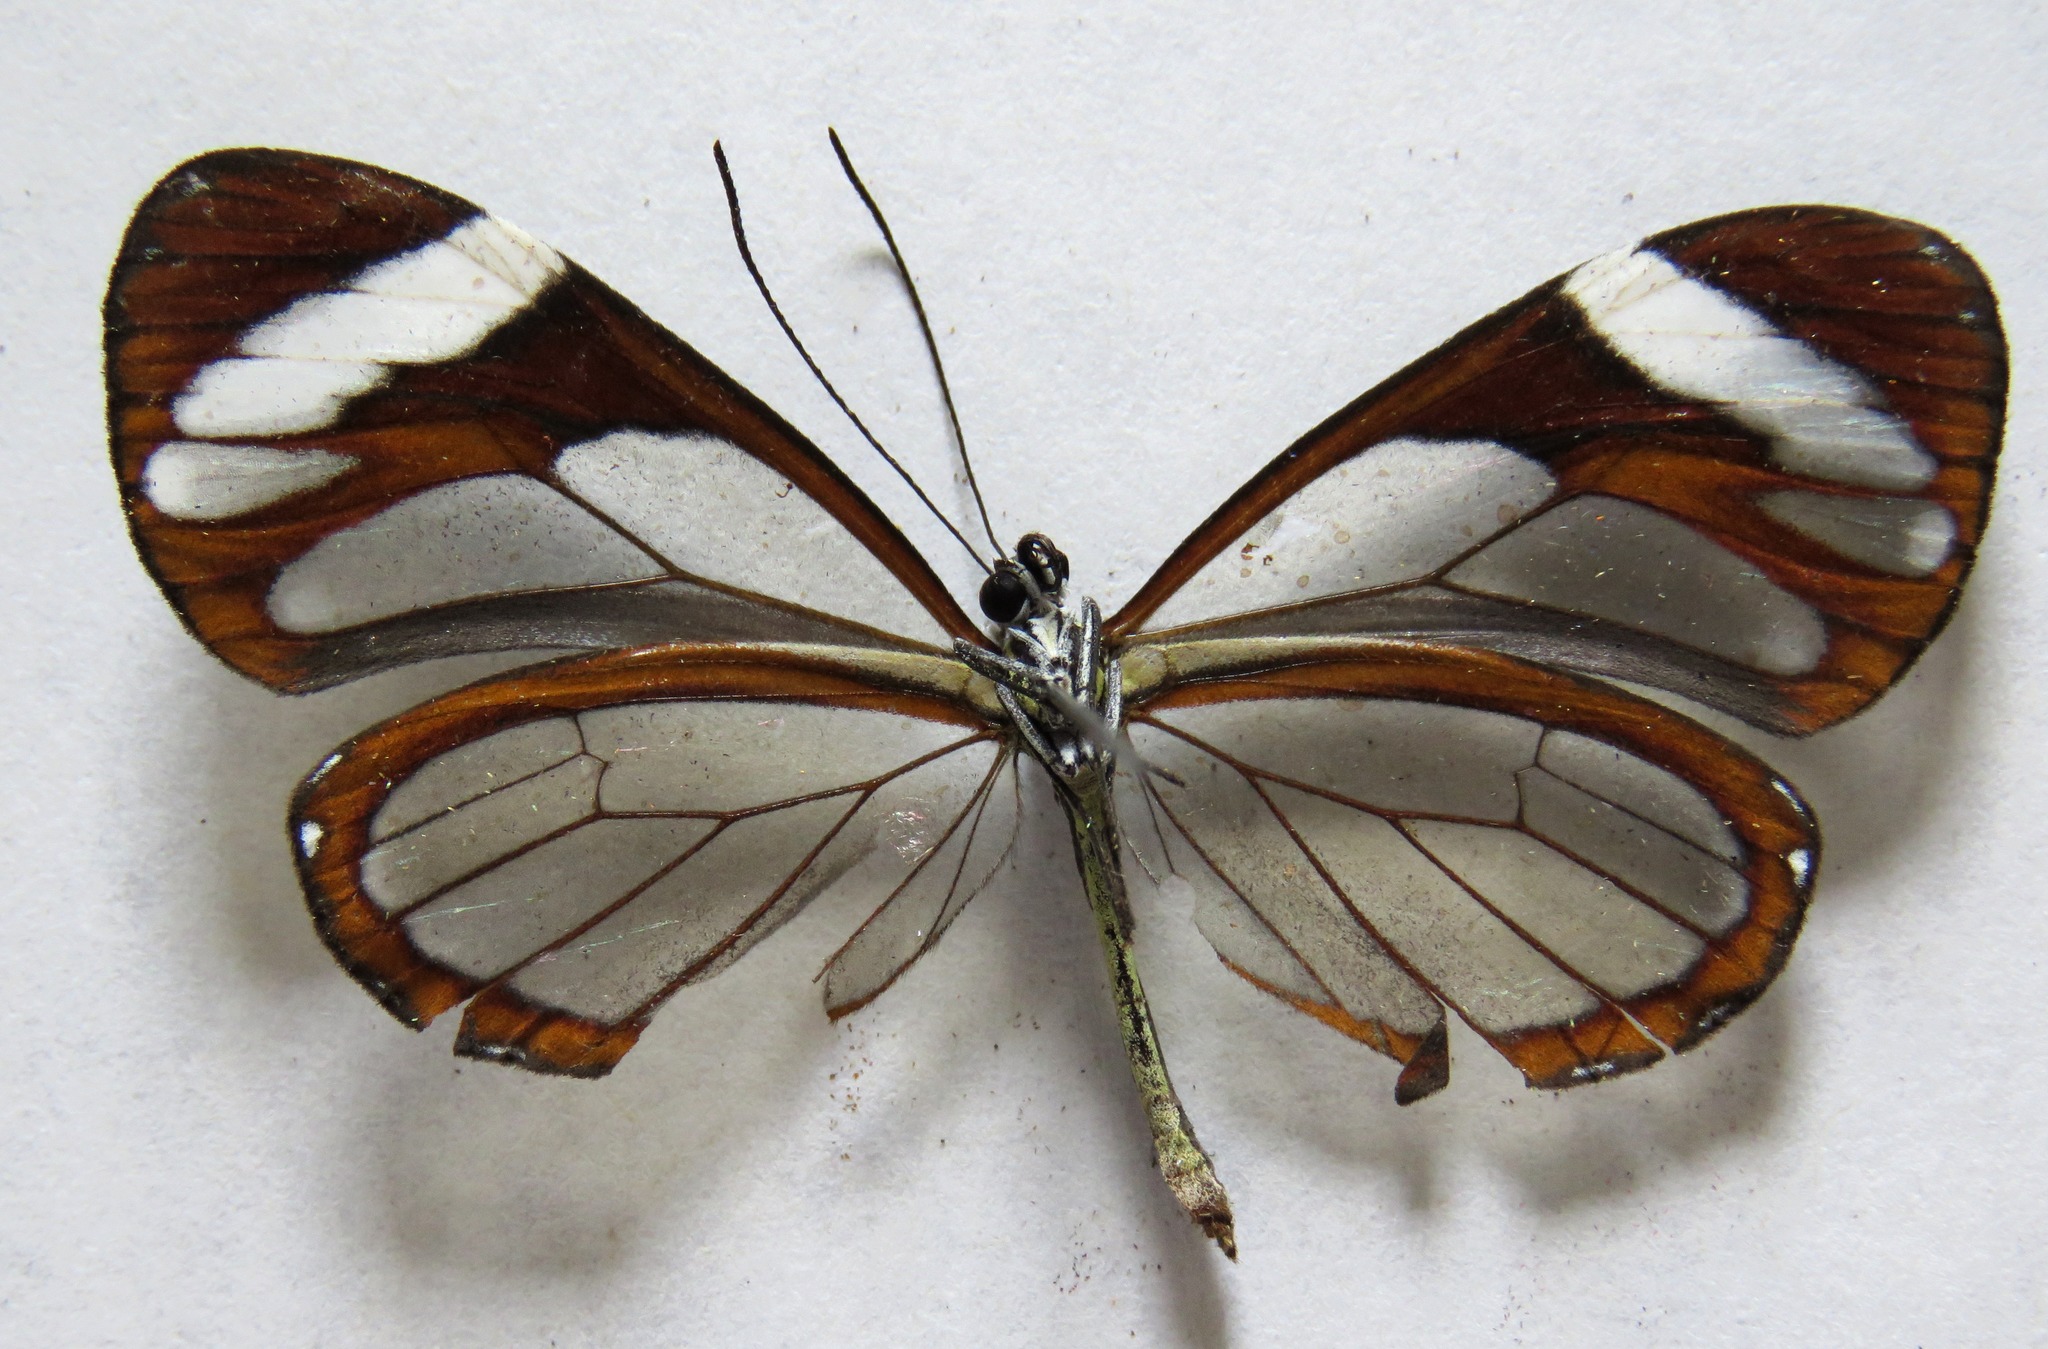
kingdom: Animalia
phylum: Arthropoda
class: Insecta
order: Lepidoptera
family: Nymphalidae
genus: Ithomia
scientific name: Ithomia patilla
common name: Patilla clearwing
